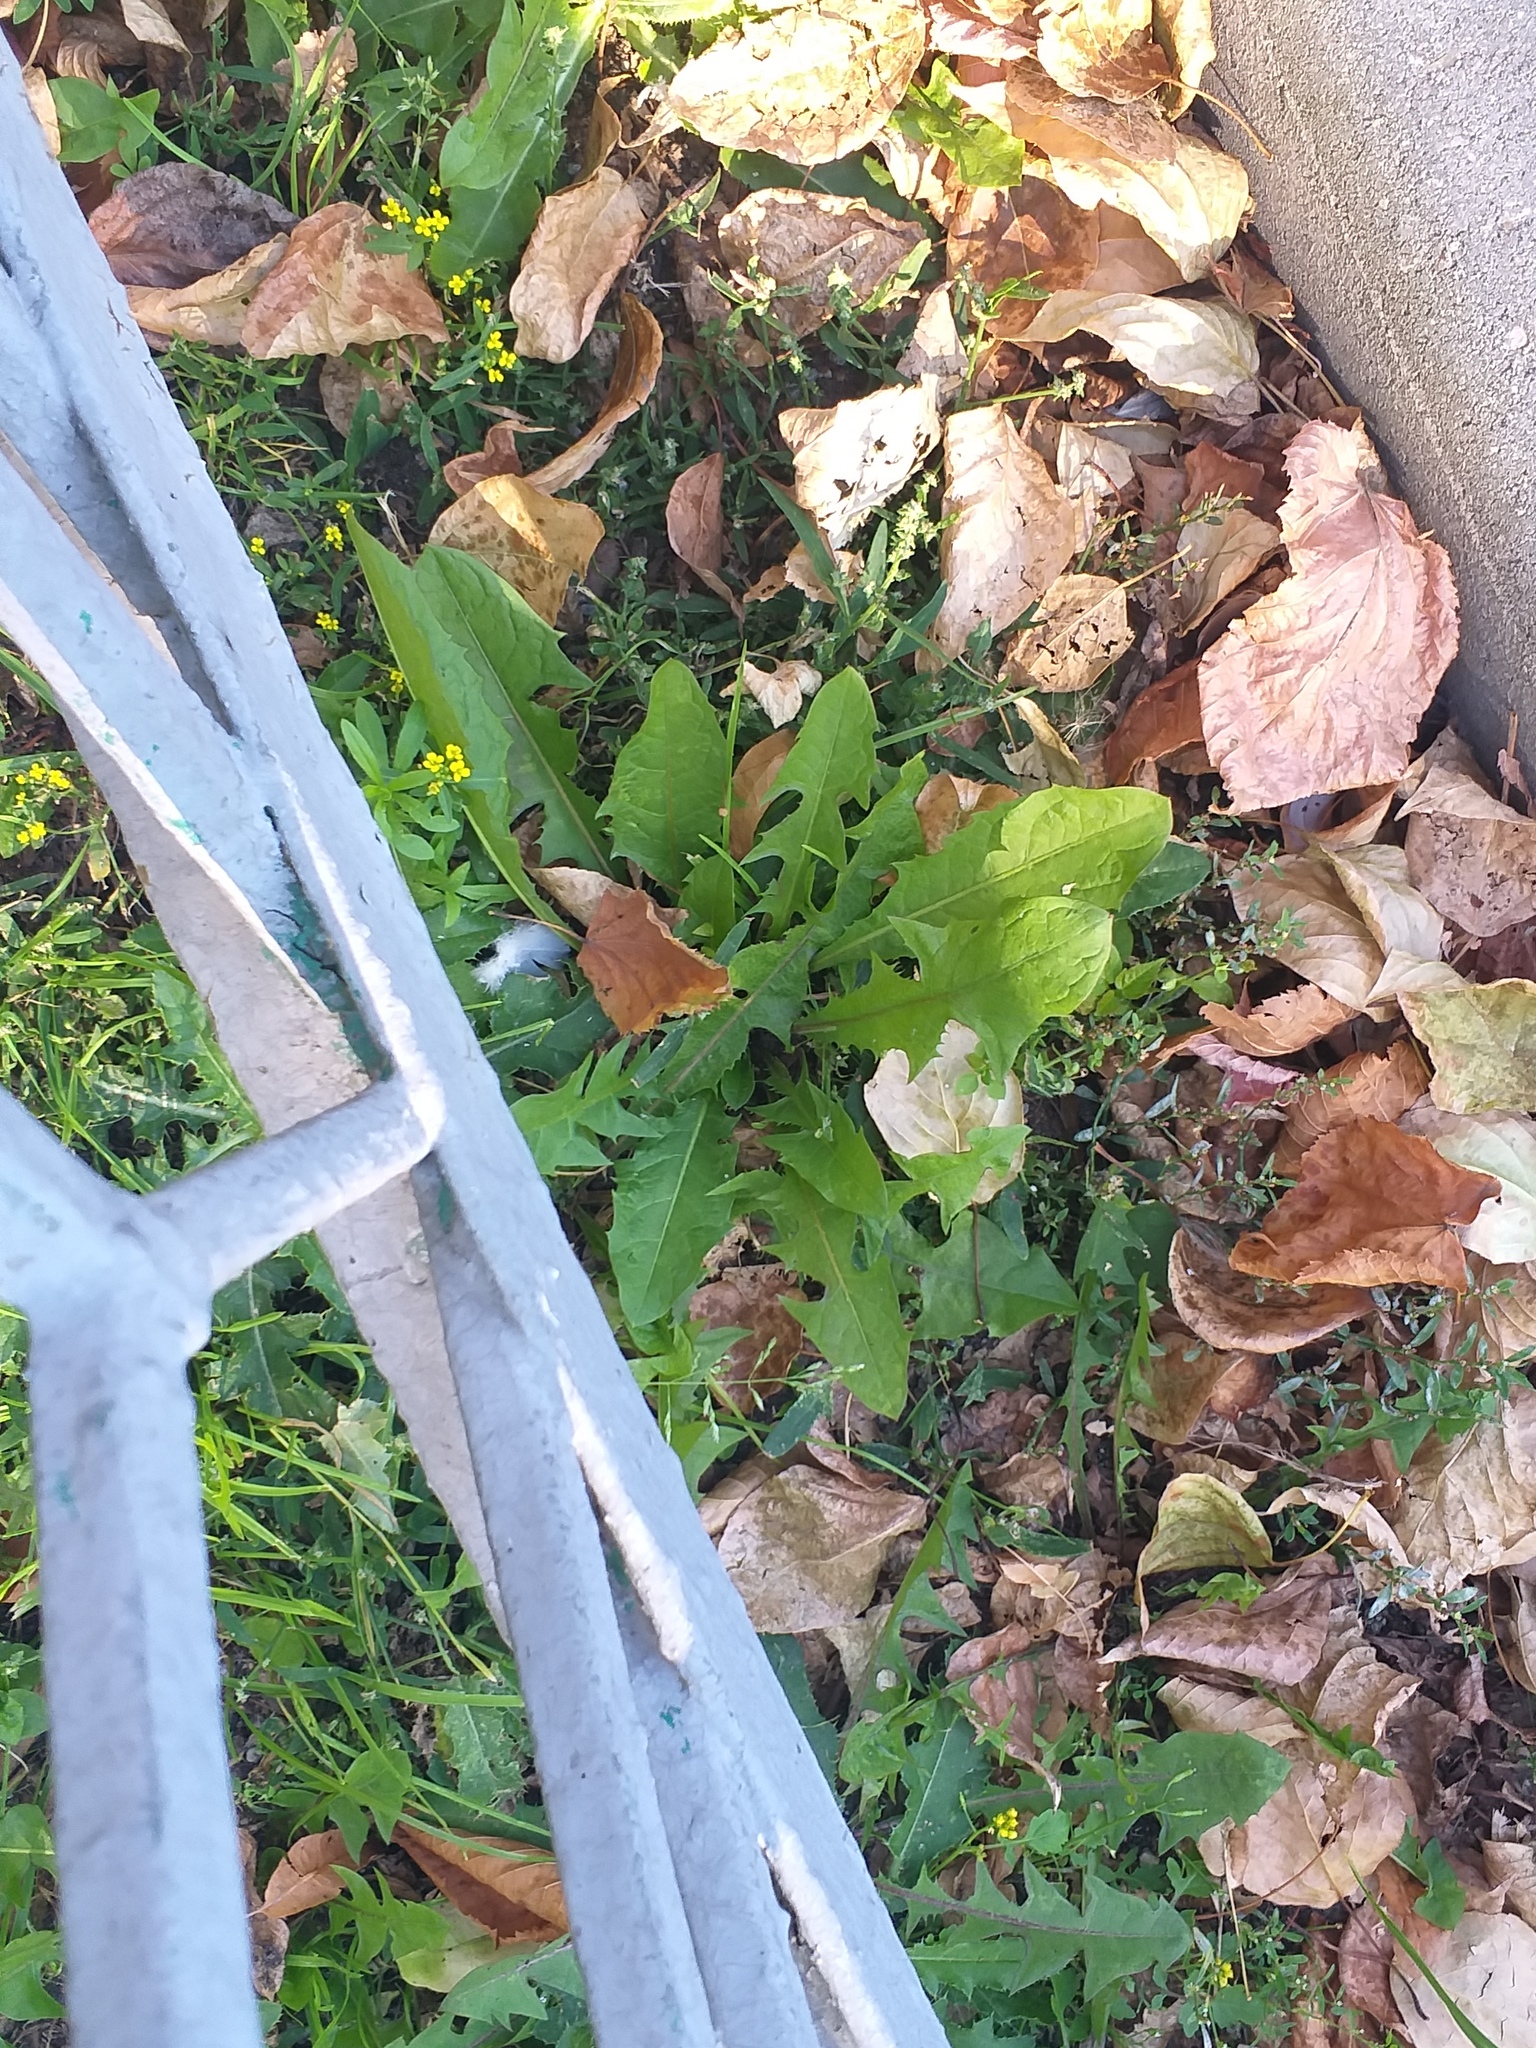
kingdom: Plantae
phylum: Tracheophyta
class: Magnoliopsida
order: Asterales
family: Asteraceae
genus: Taraxacum
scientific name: Taraxacum officinale
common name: Common dandelion
